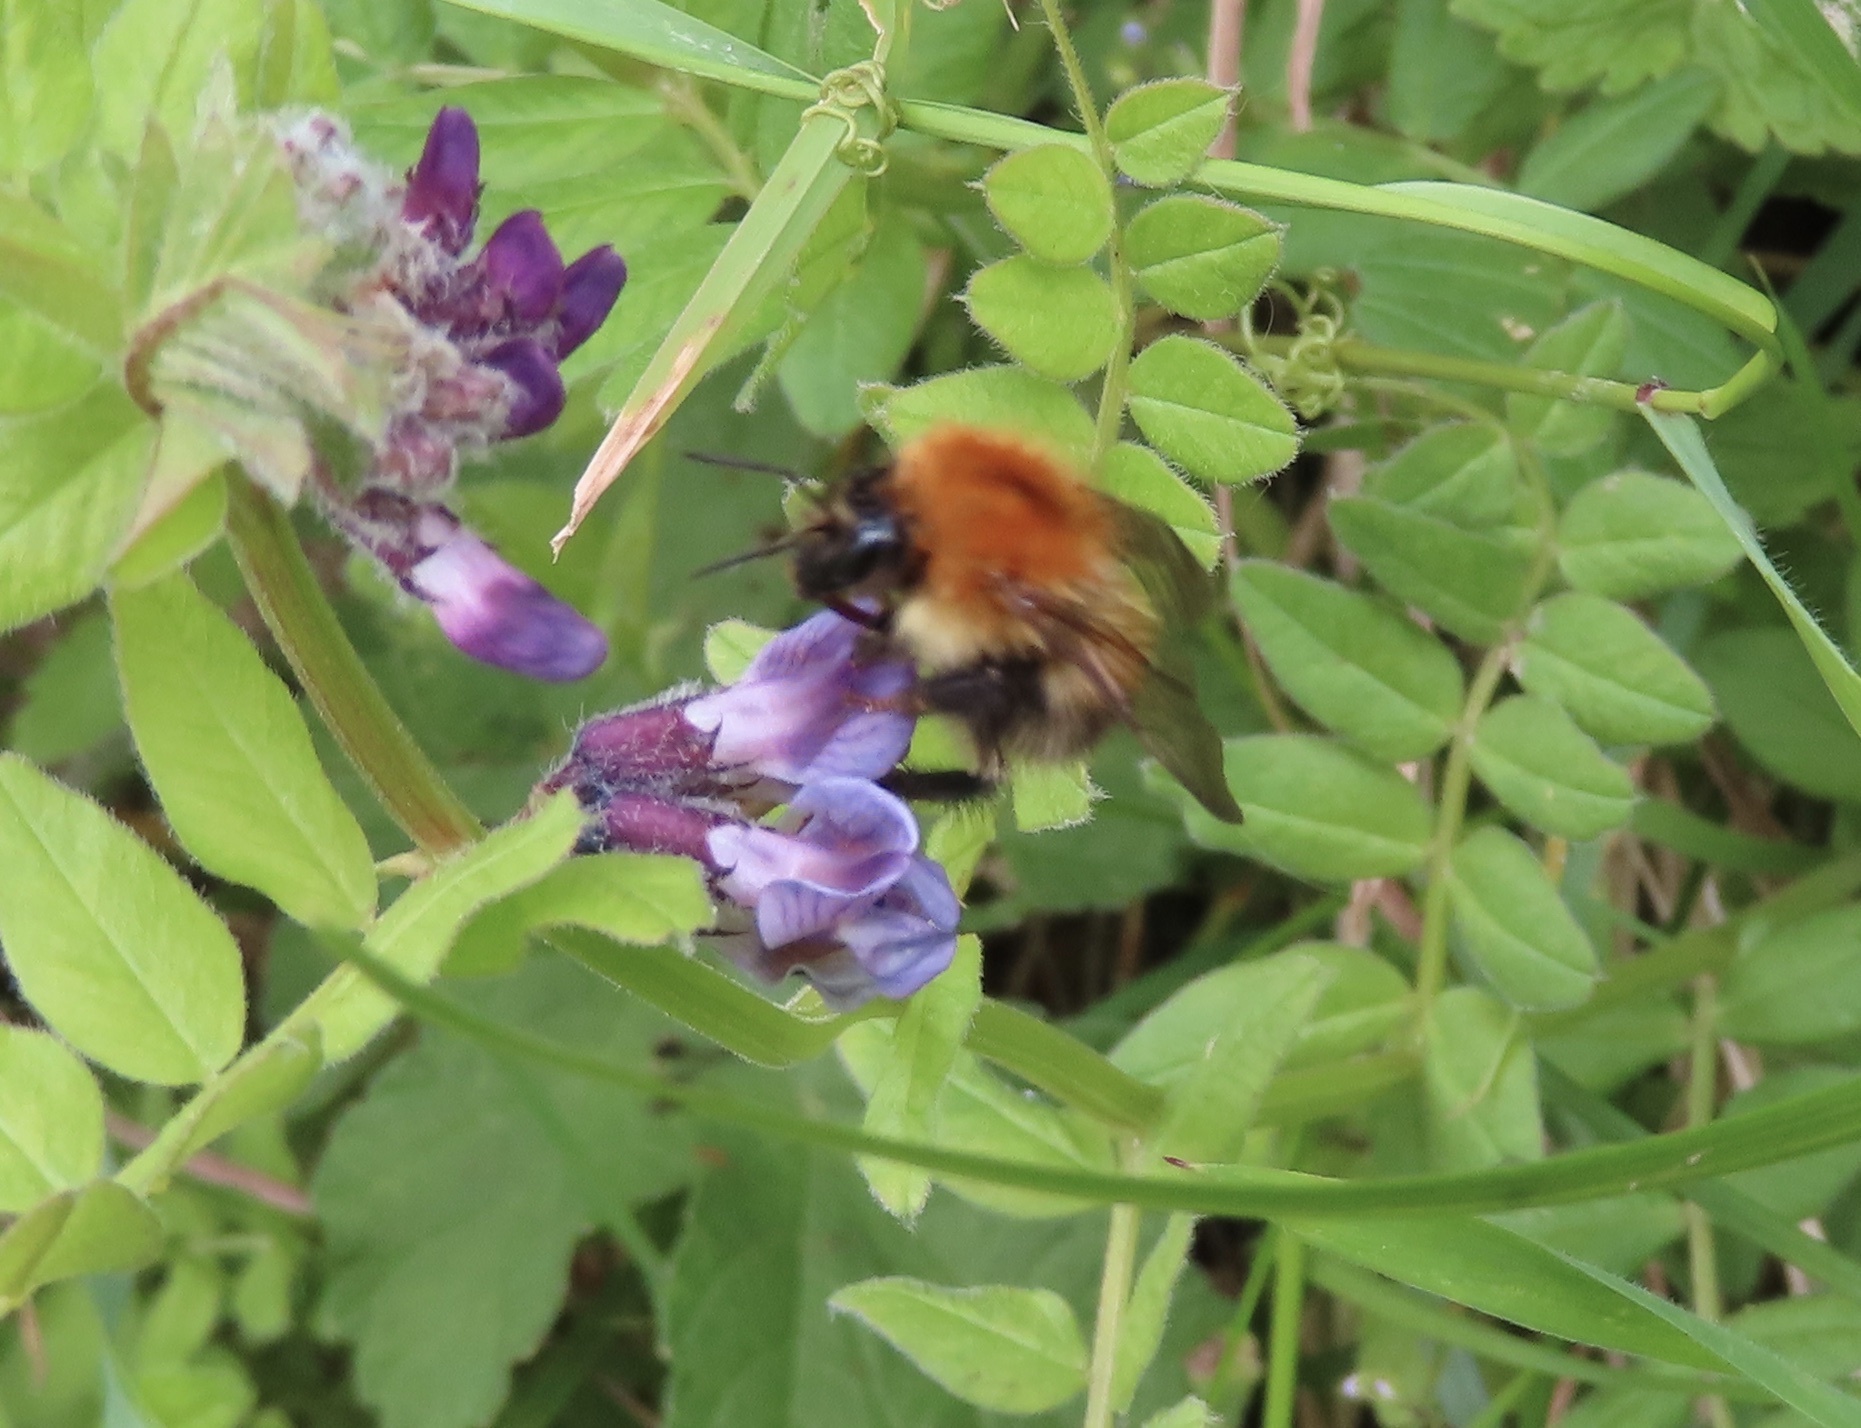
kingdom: Animalia
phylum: Arthropoda
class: Insecta
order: Hymenoptera
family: Apidae
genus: Bombus
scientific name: Bombus pascuorum
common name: Common carder bee
